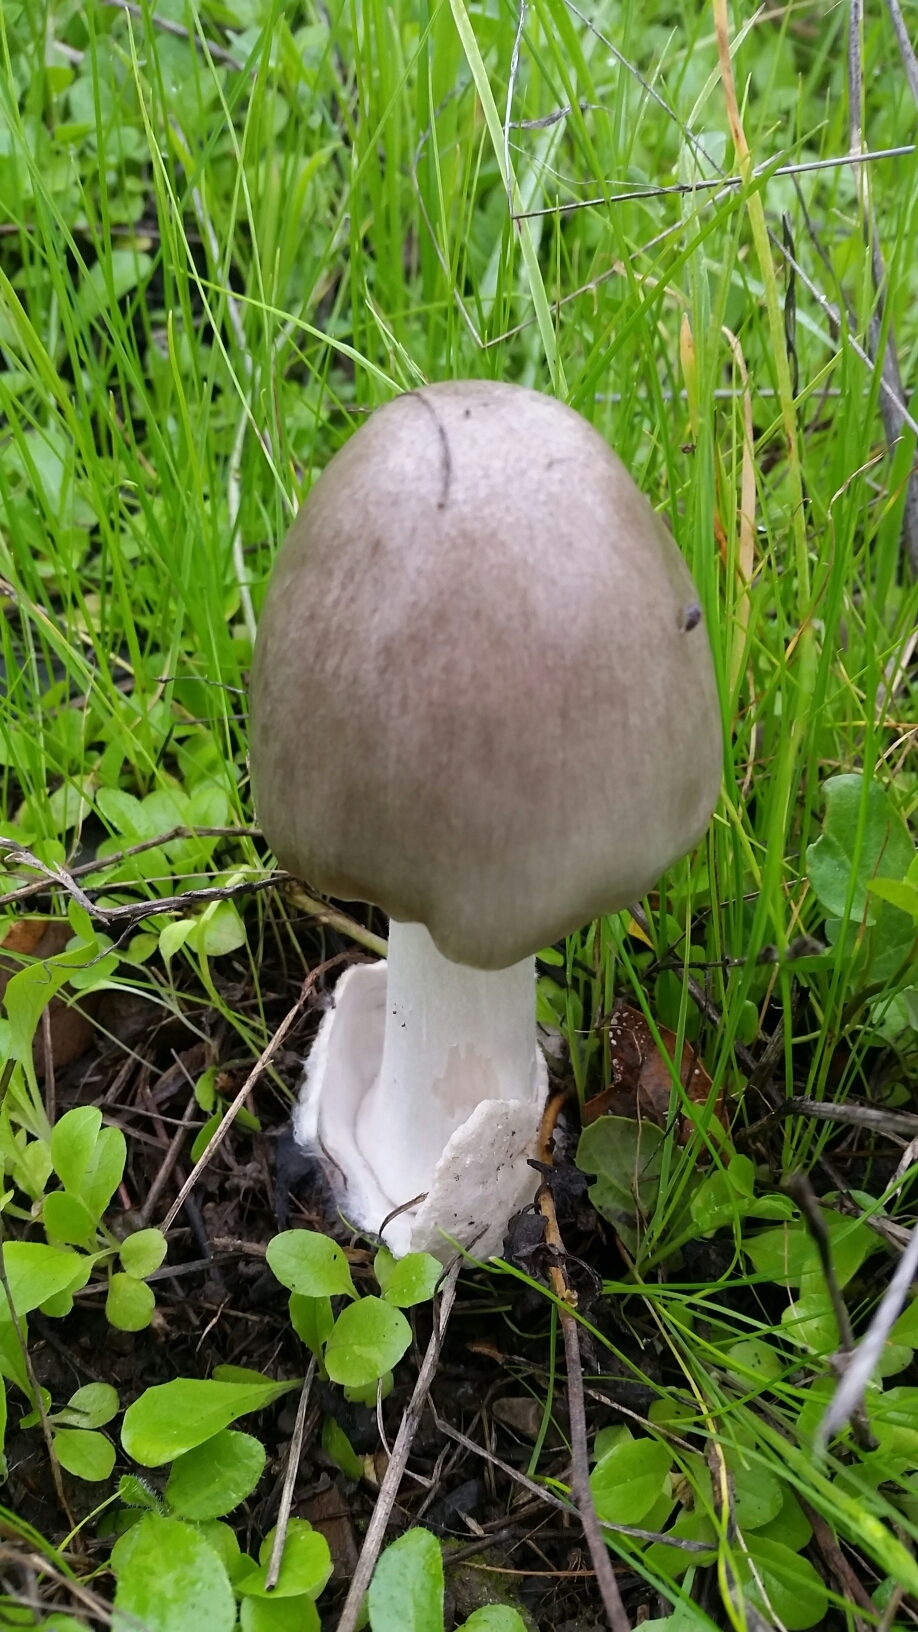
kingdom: Fungi
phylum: Basidiomycota
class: Agaricomycetes
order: Agaricales
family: Pluteaceae
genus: Volvopluteus
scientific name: Volvopluteus gloiocephalus
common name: Stubble rosegill
